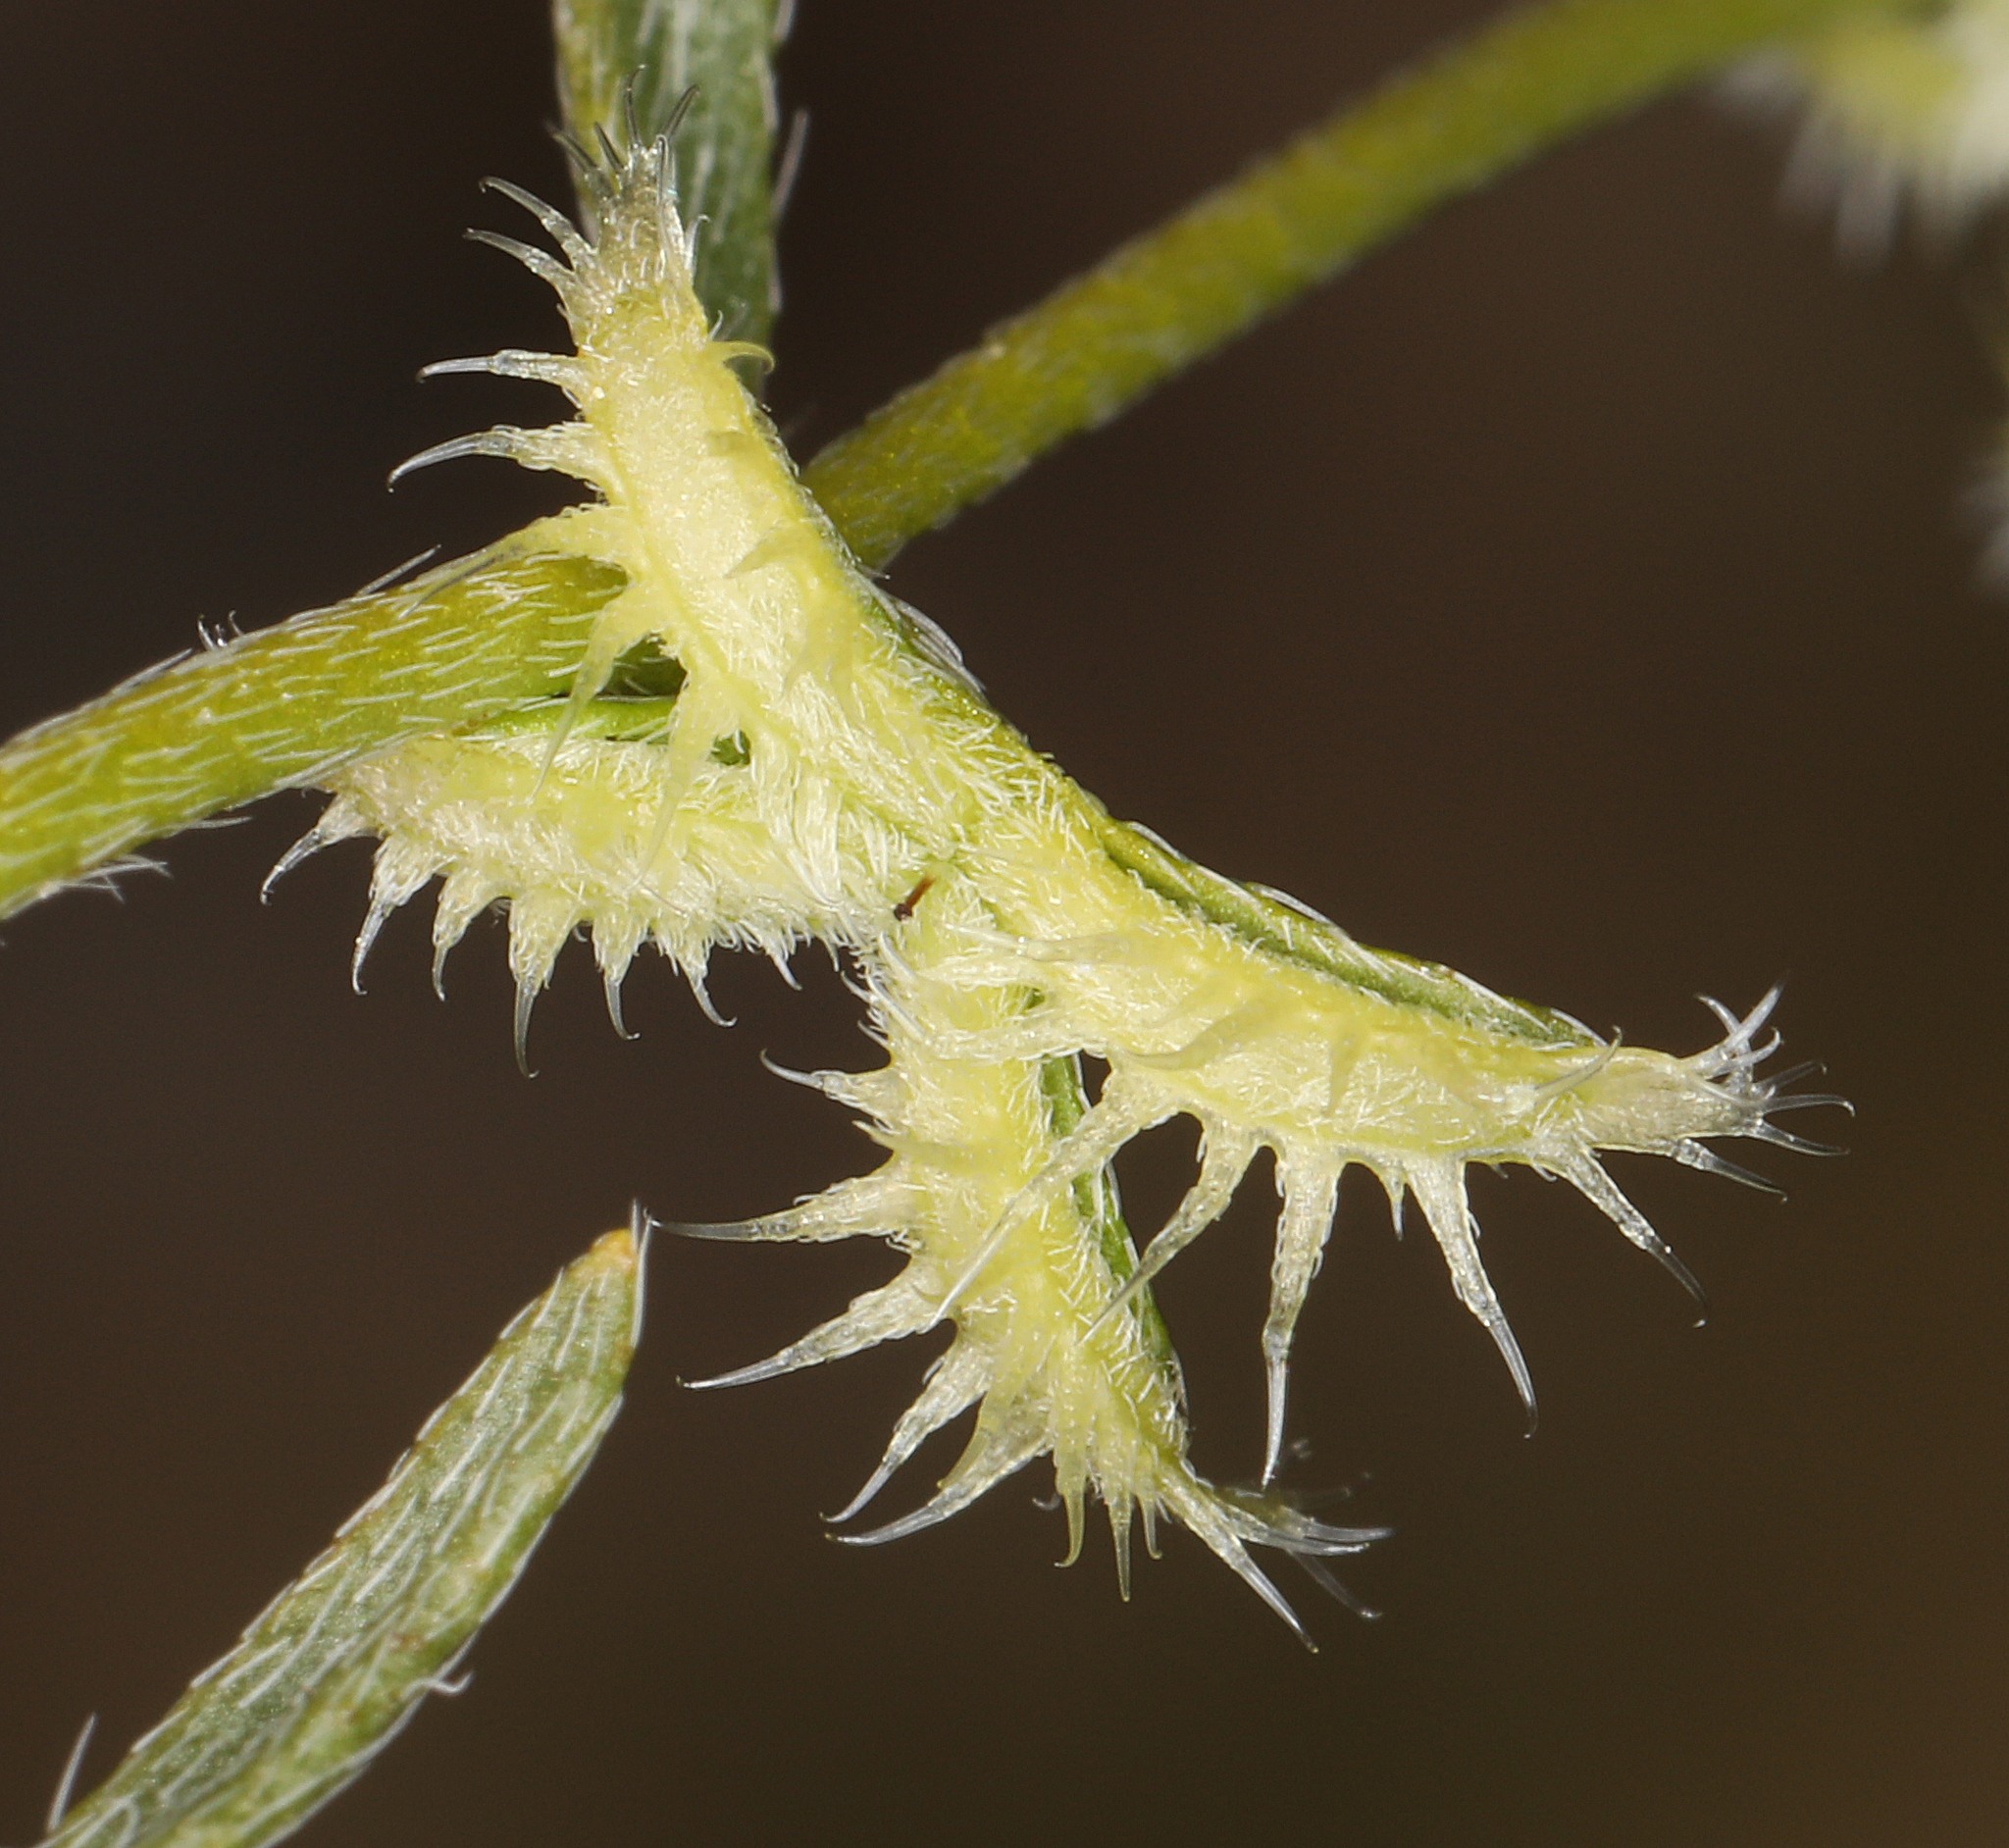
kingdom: Plantae
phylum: Tracheophyta
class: Magnoliopsida
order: Boraginales
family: Boraginaceae
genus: Pectocarya
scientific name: Pectocarya recurvata
